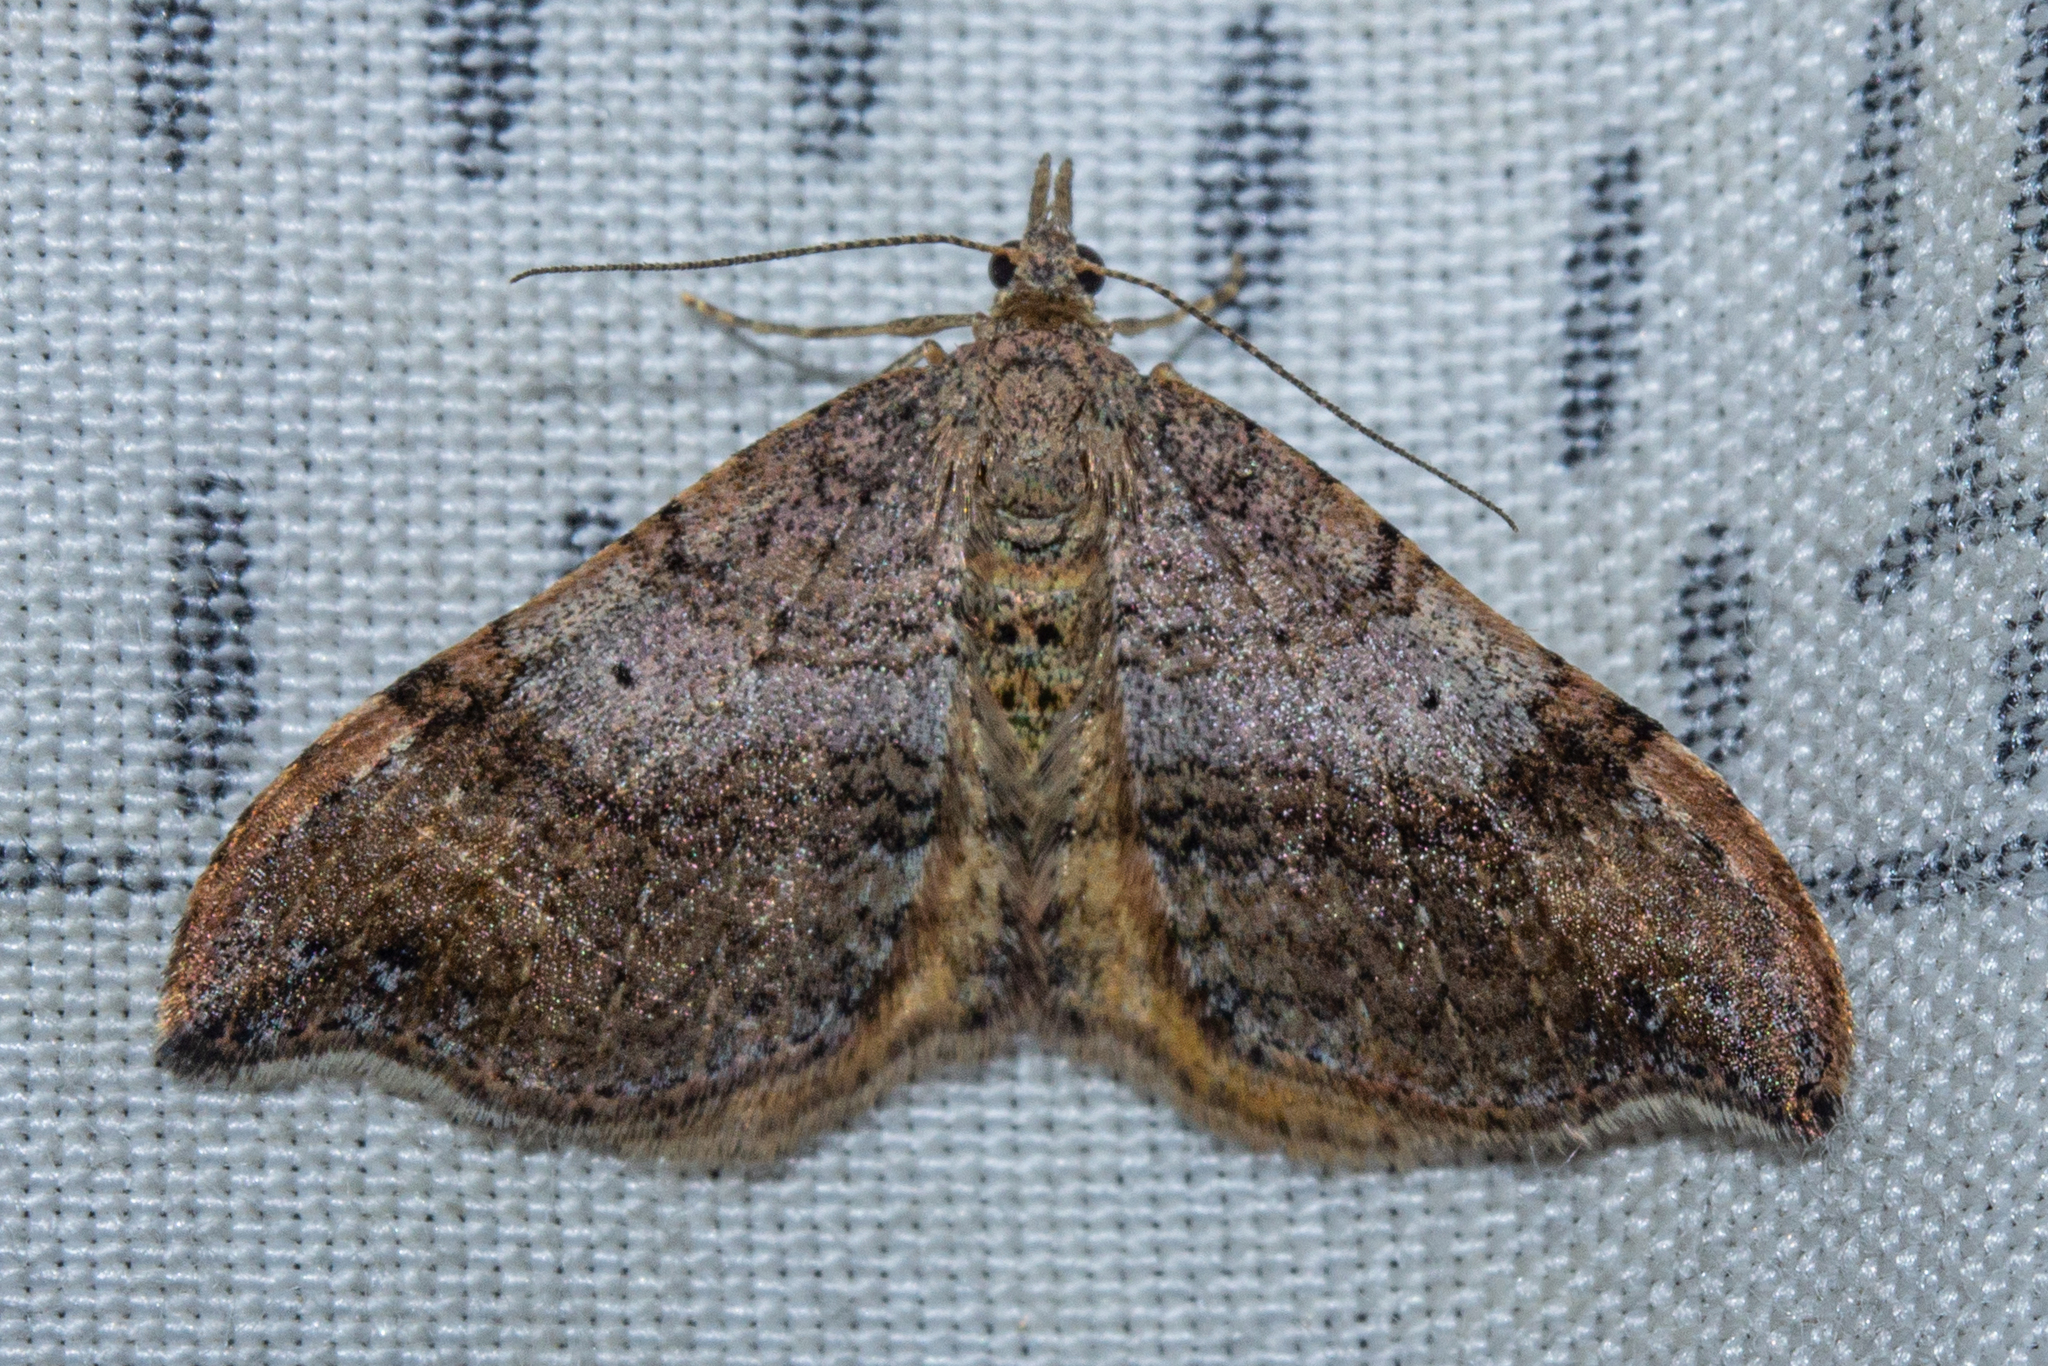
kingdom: Animalia
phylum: Arthropoda
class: Insecta
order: Lepidoptera
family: Geometridae
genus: Homodotis
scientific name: Homodotis megaspilata
